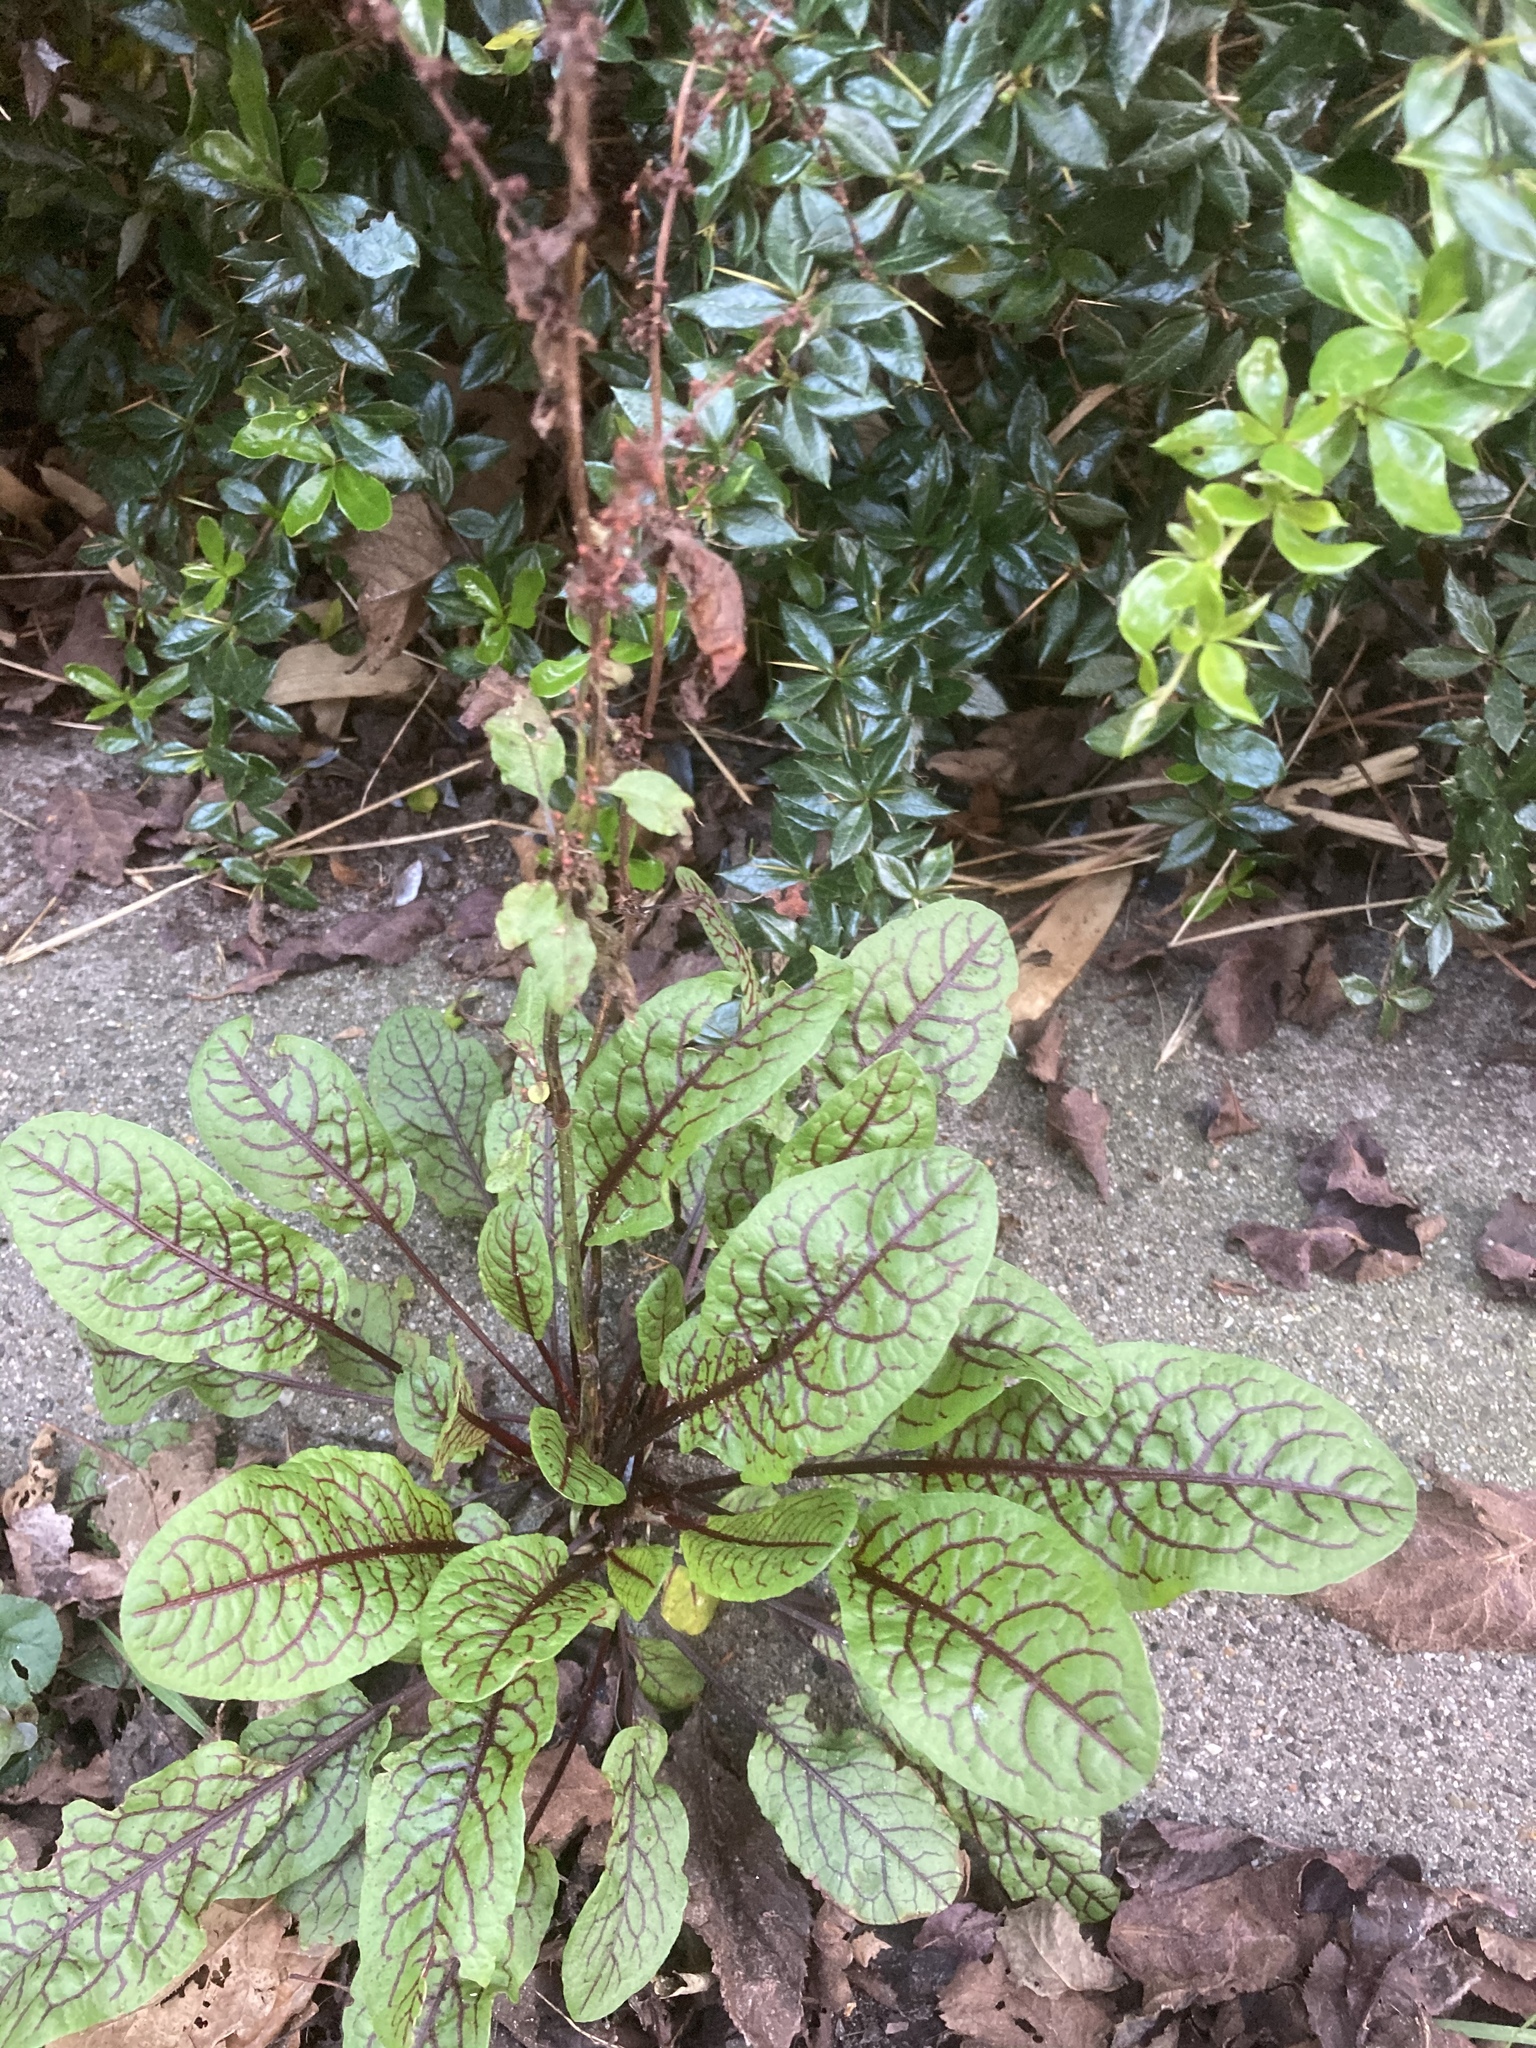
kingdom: Plantae
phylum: Tracheophyta
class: Magnoliopsida
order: Caryophyllales
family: Polygonaceae
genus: Rumex
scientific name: Rumex sanguineus
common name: Wood dock
